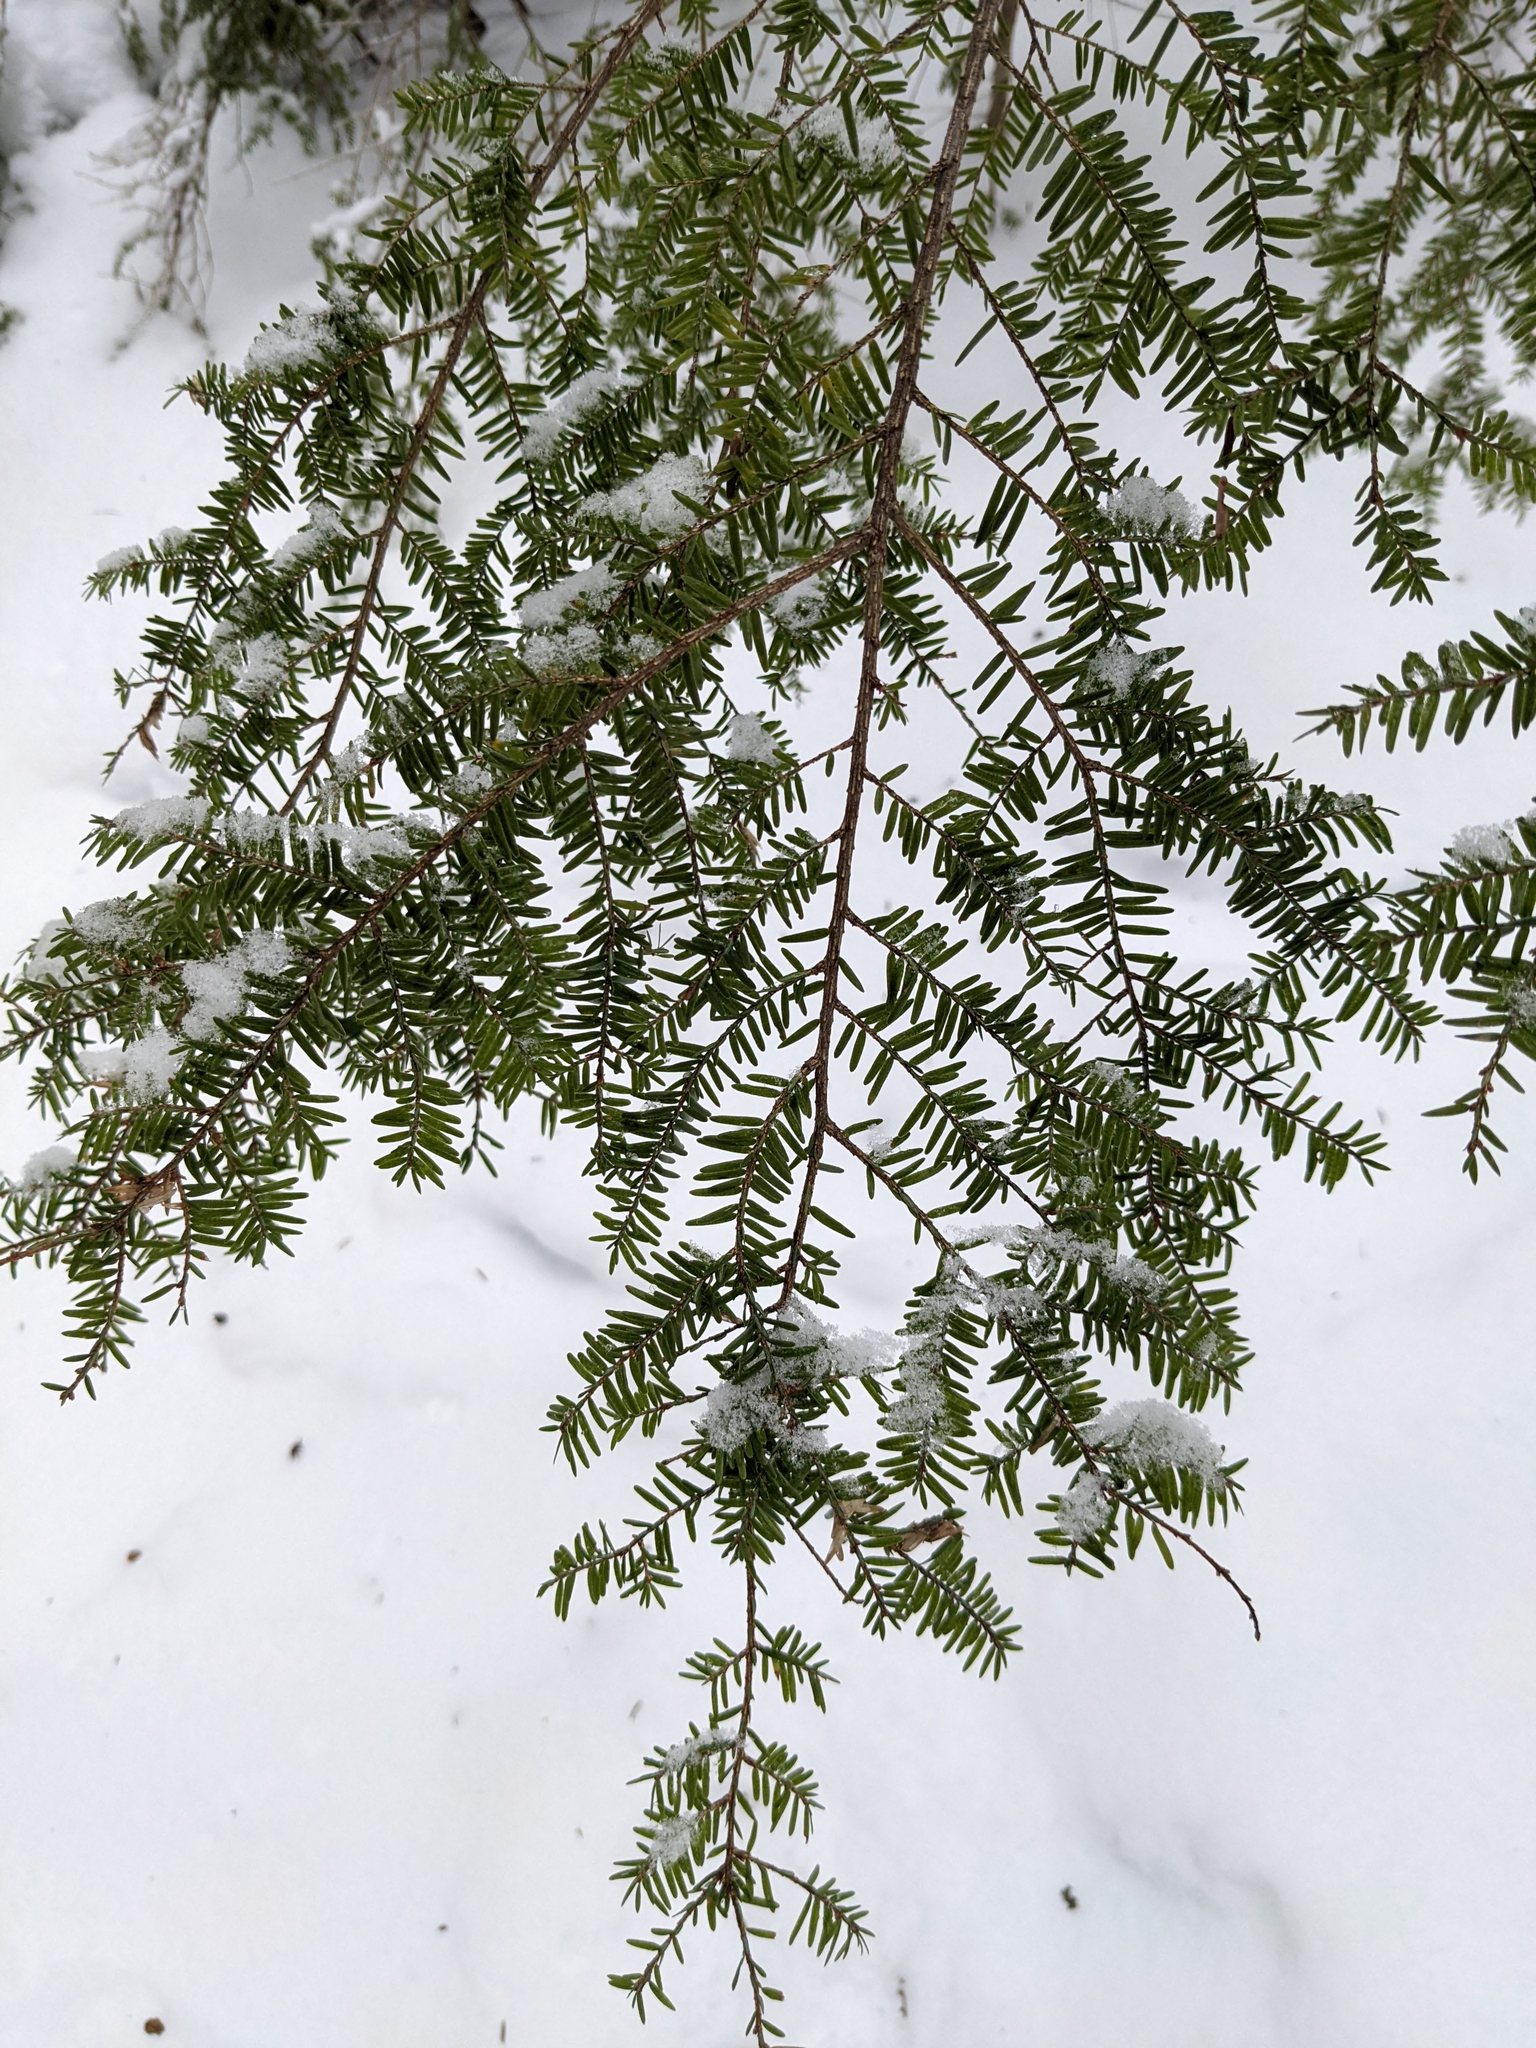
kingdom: Plantae
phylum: Tracheophyta
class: Pinopsida
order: Pinales
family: Pinaceae
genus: Tsuga
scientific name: Tsuga canadensis
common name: Eastern hemlock
